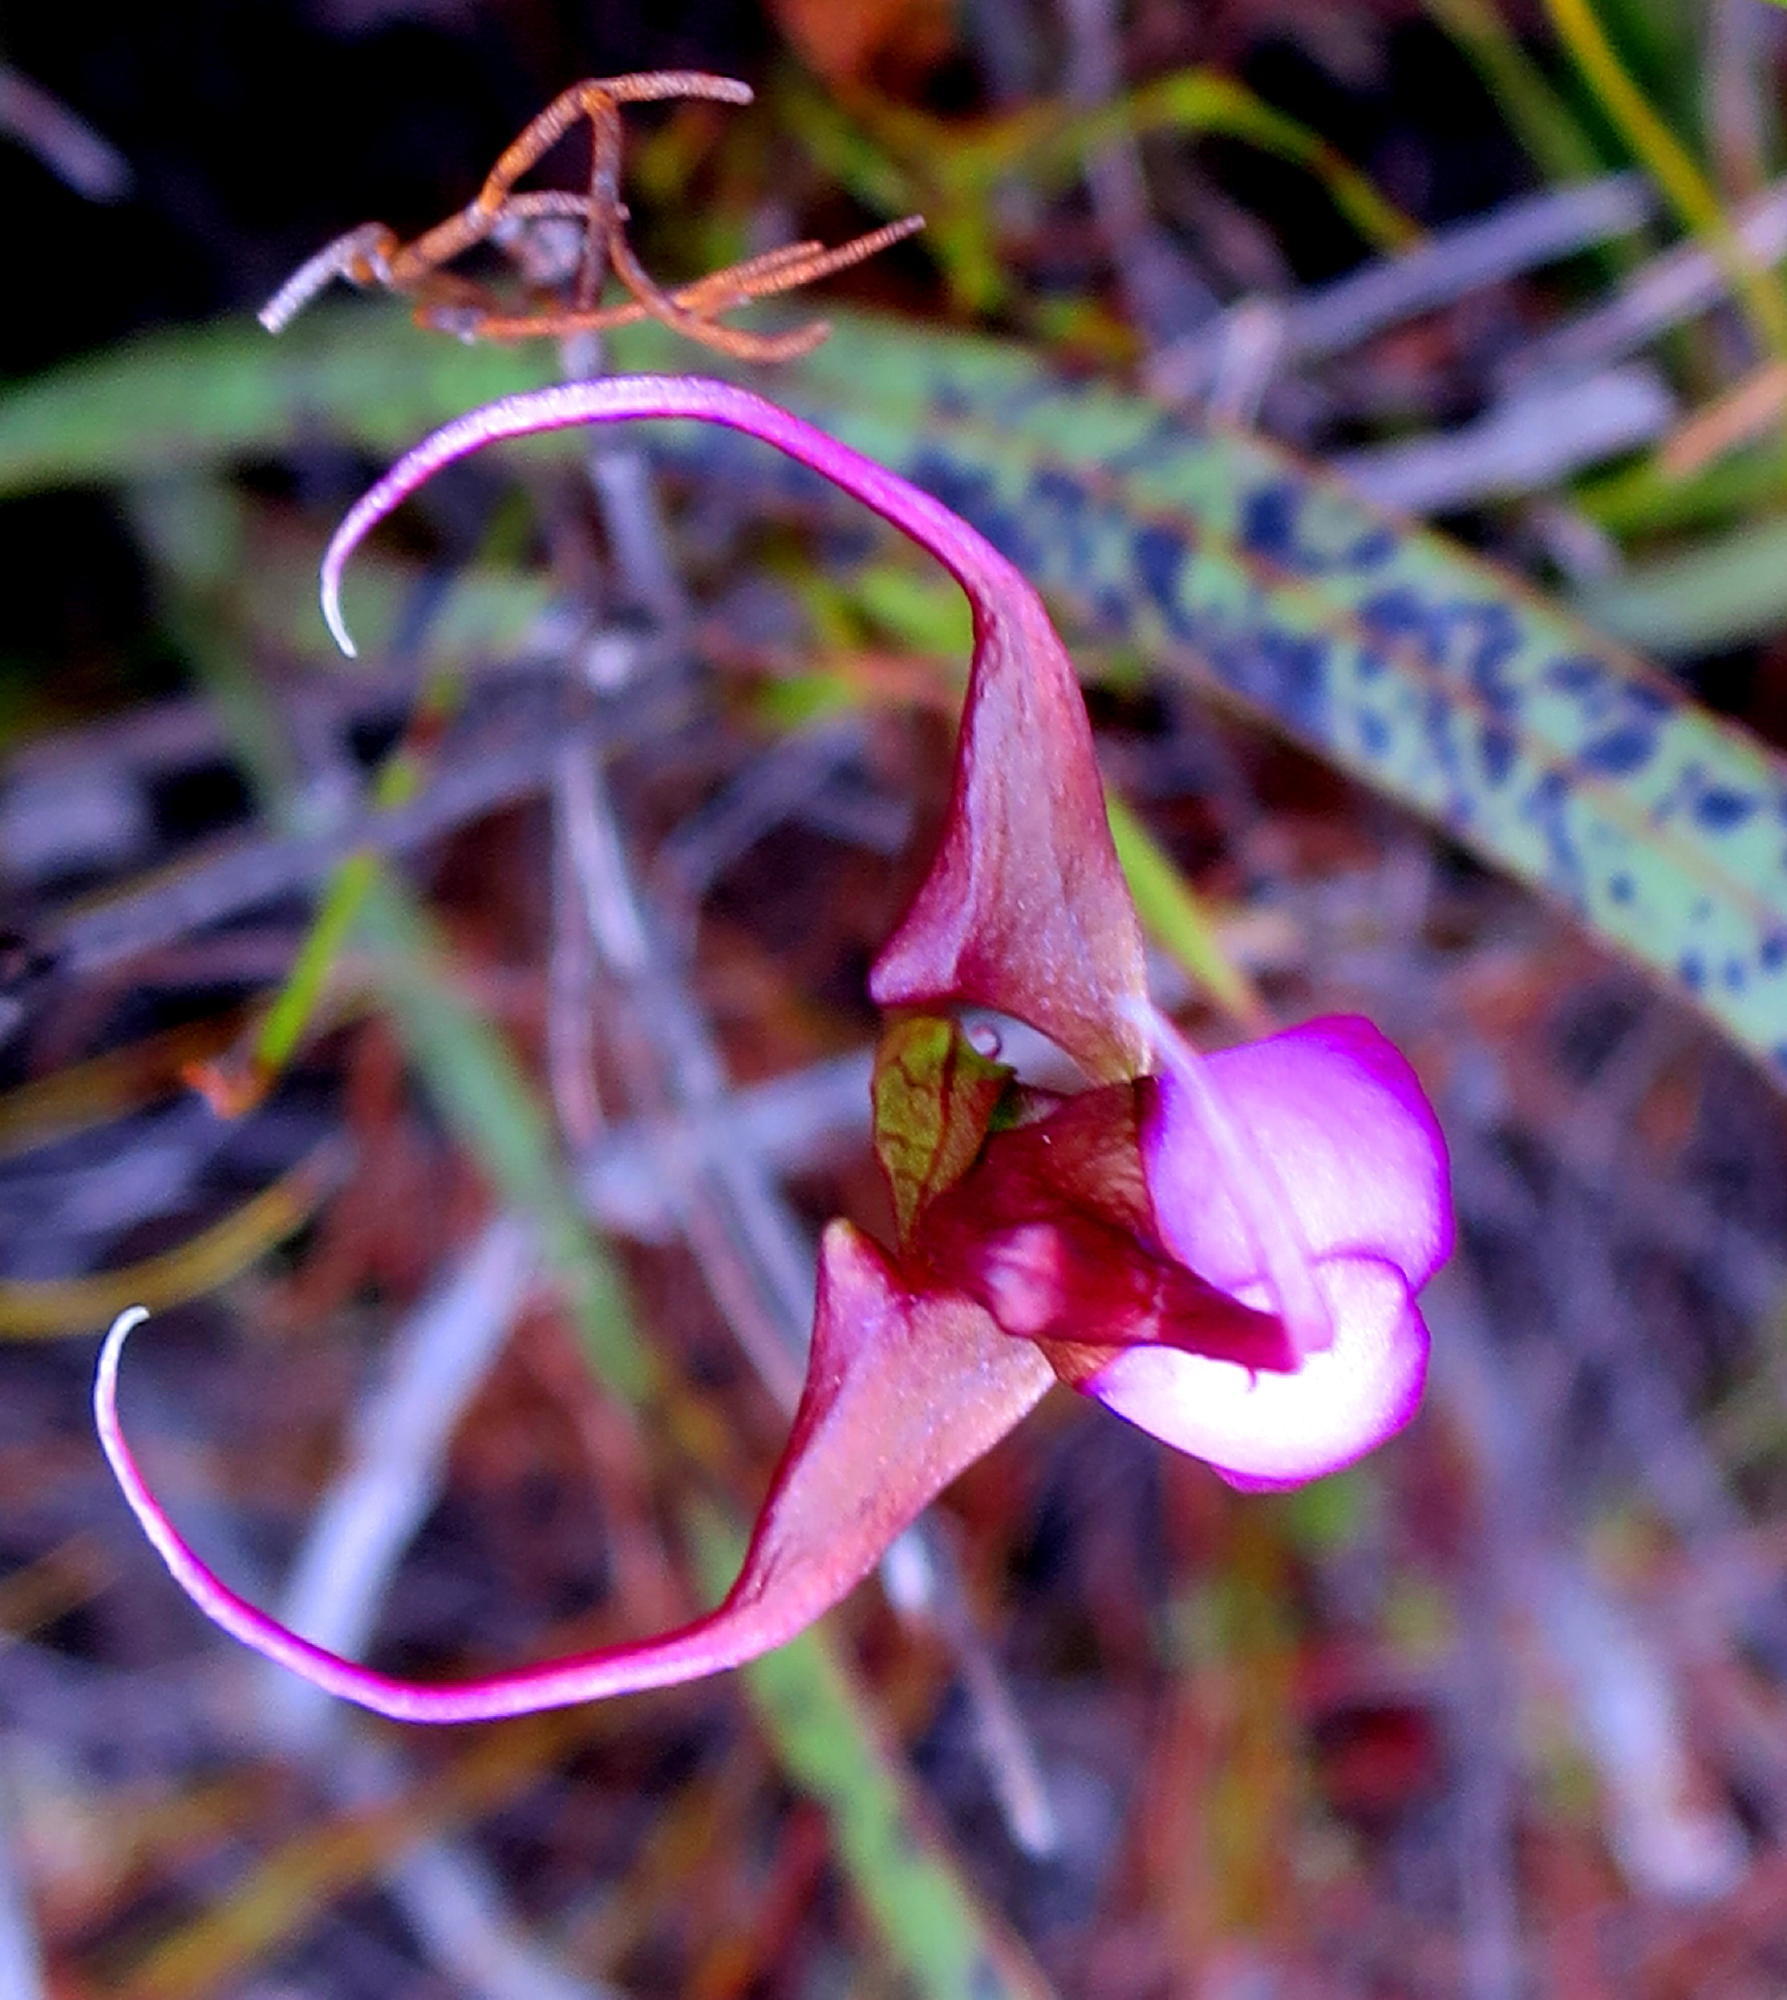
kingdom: Plantae
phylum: Tracheophyta
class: Liliopsida
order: Asparagales
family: Orchidaceae
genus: Disperis
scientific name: Disperis capensis
